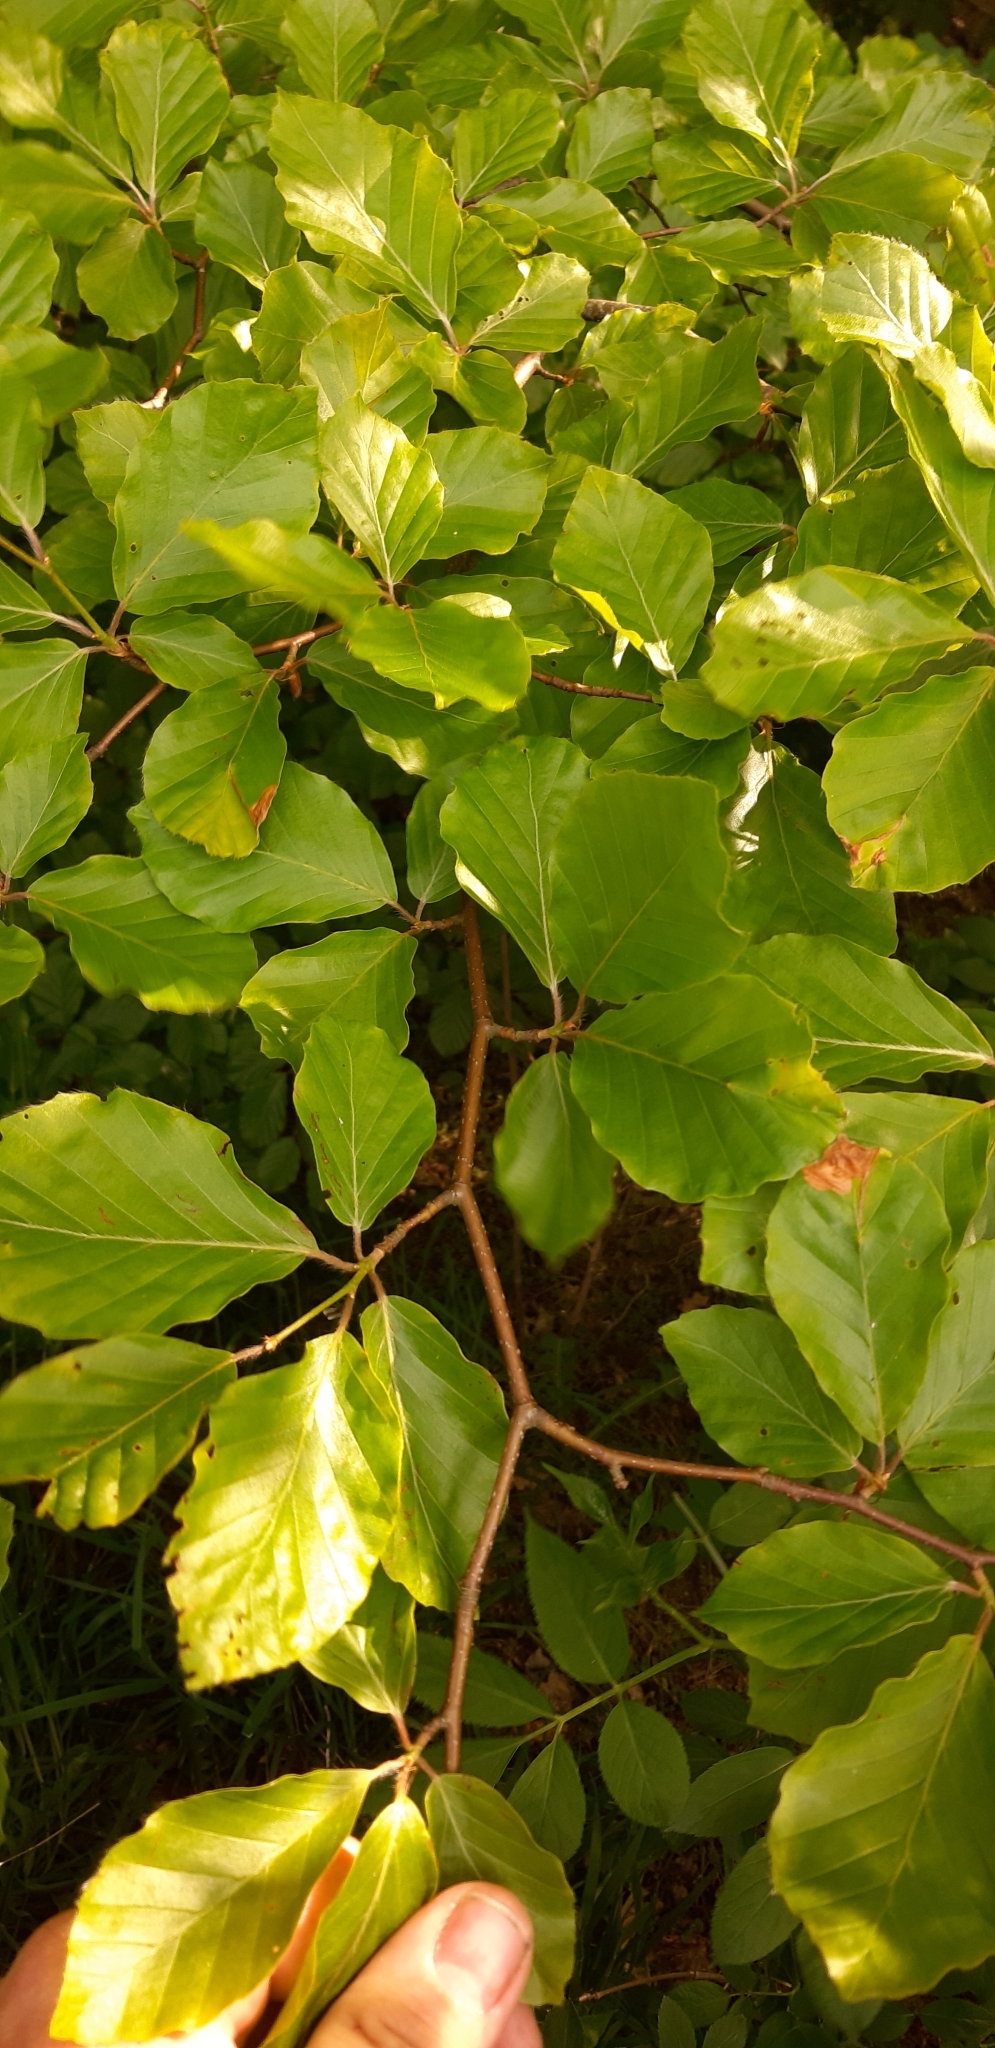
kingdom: Plantae
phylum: Tracheophyta
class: Magnoliopsida
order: Fagales
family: Fagaceae
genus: Fagus
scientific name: Fagus sylvatica
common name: Beech
